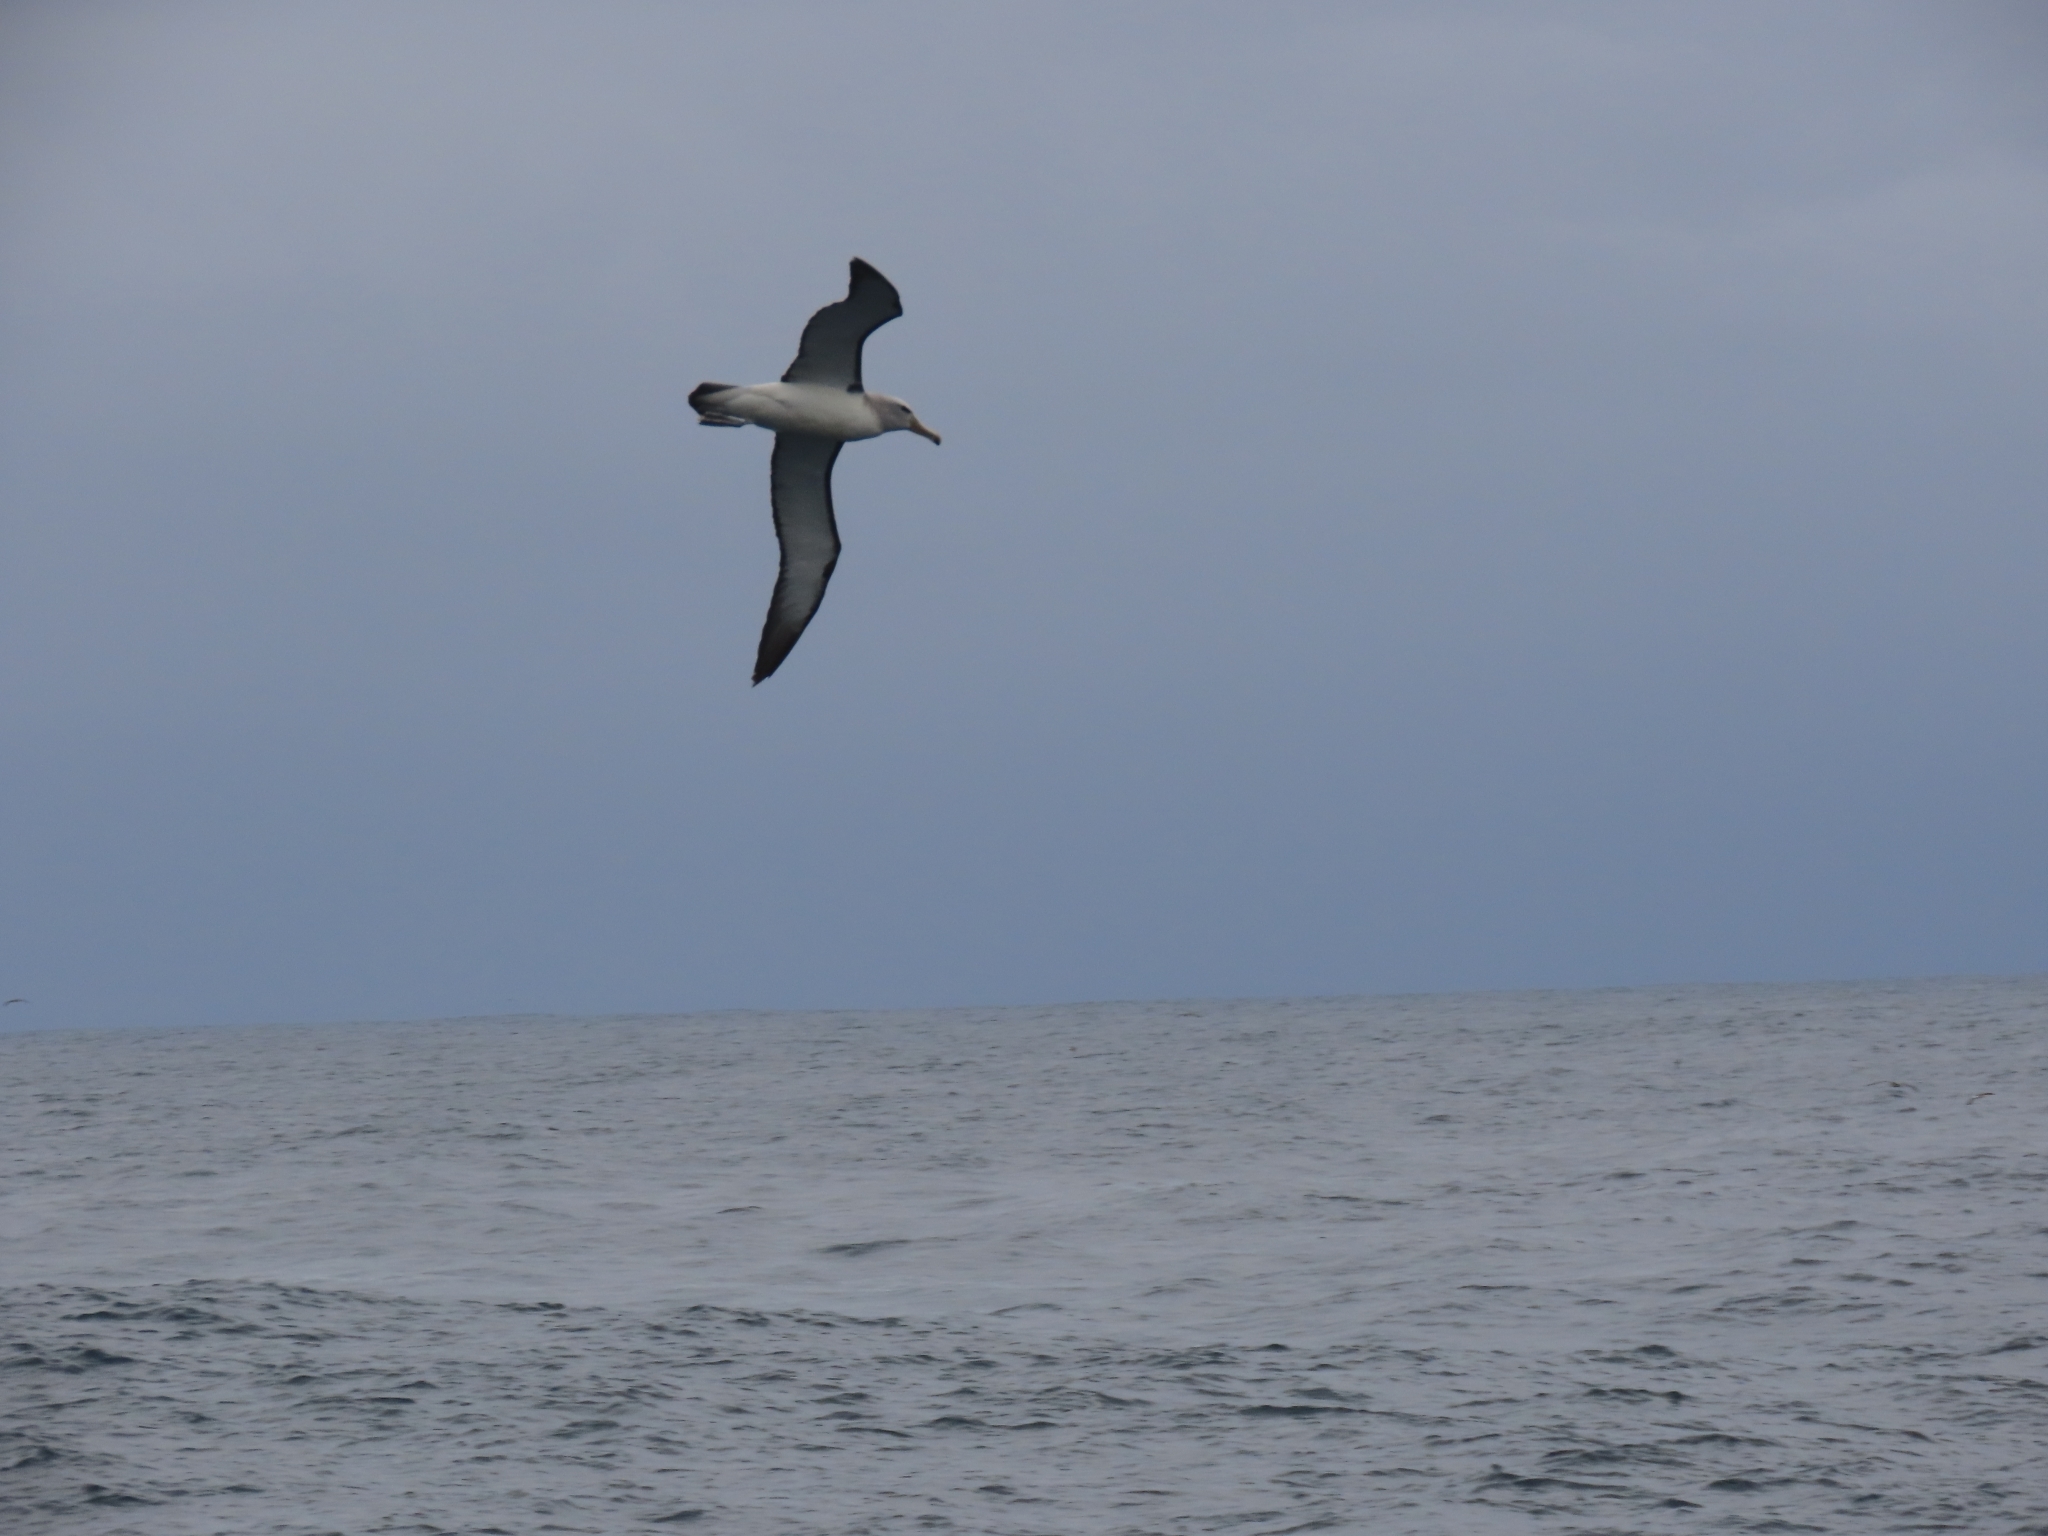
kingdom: Animalia
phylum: Chordata
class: Aves
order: Procellariiformes
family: Diomedeidae
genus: Thalassarche
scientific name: Thalassarche salvini
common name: Salvin's albatross
